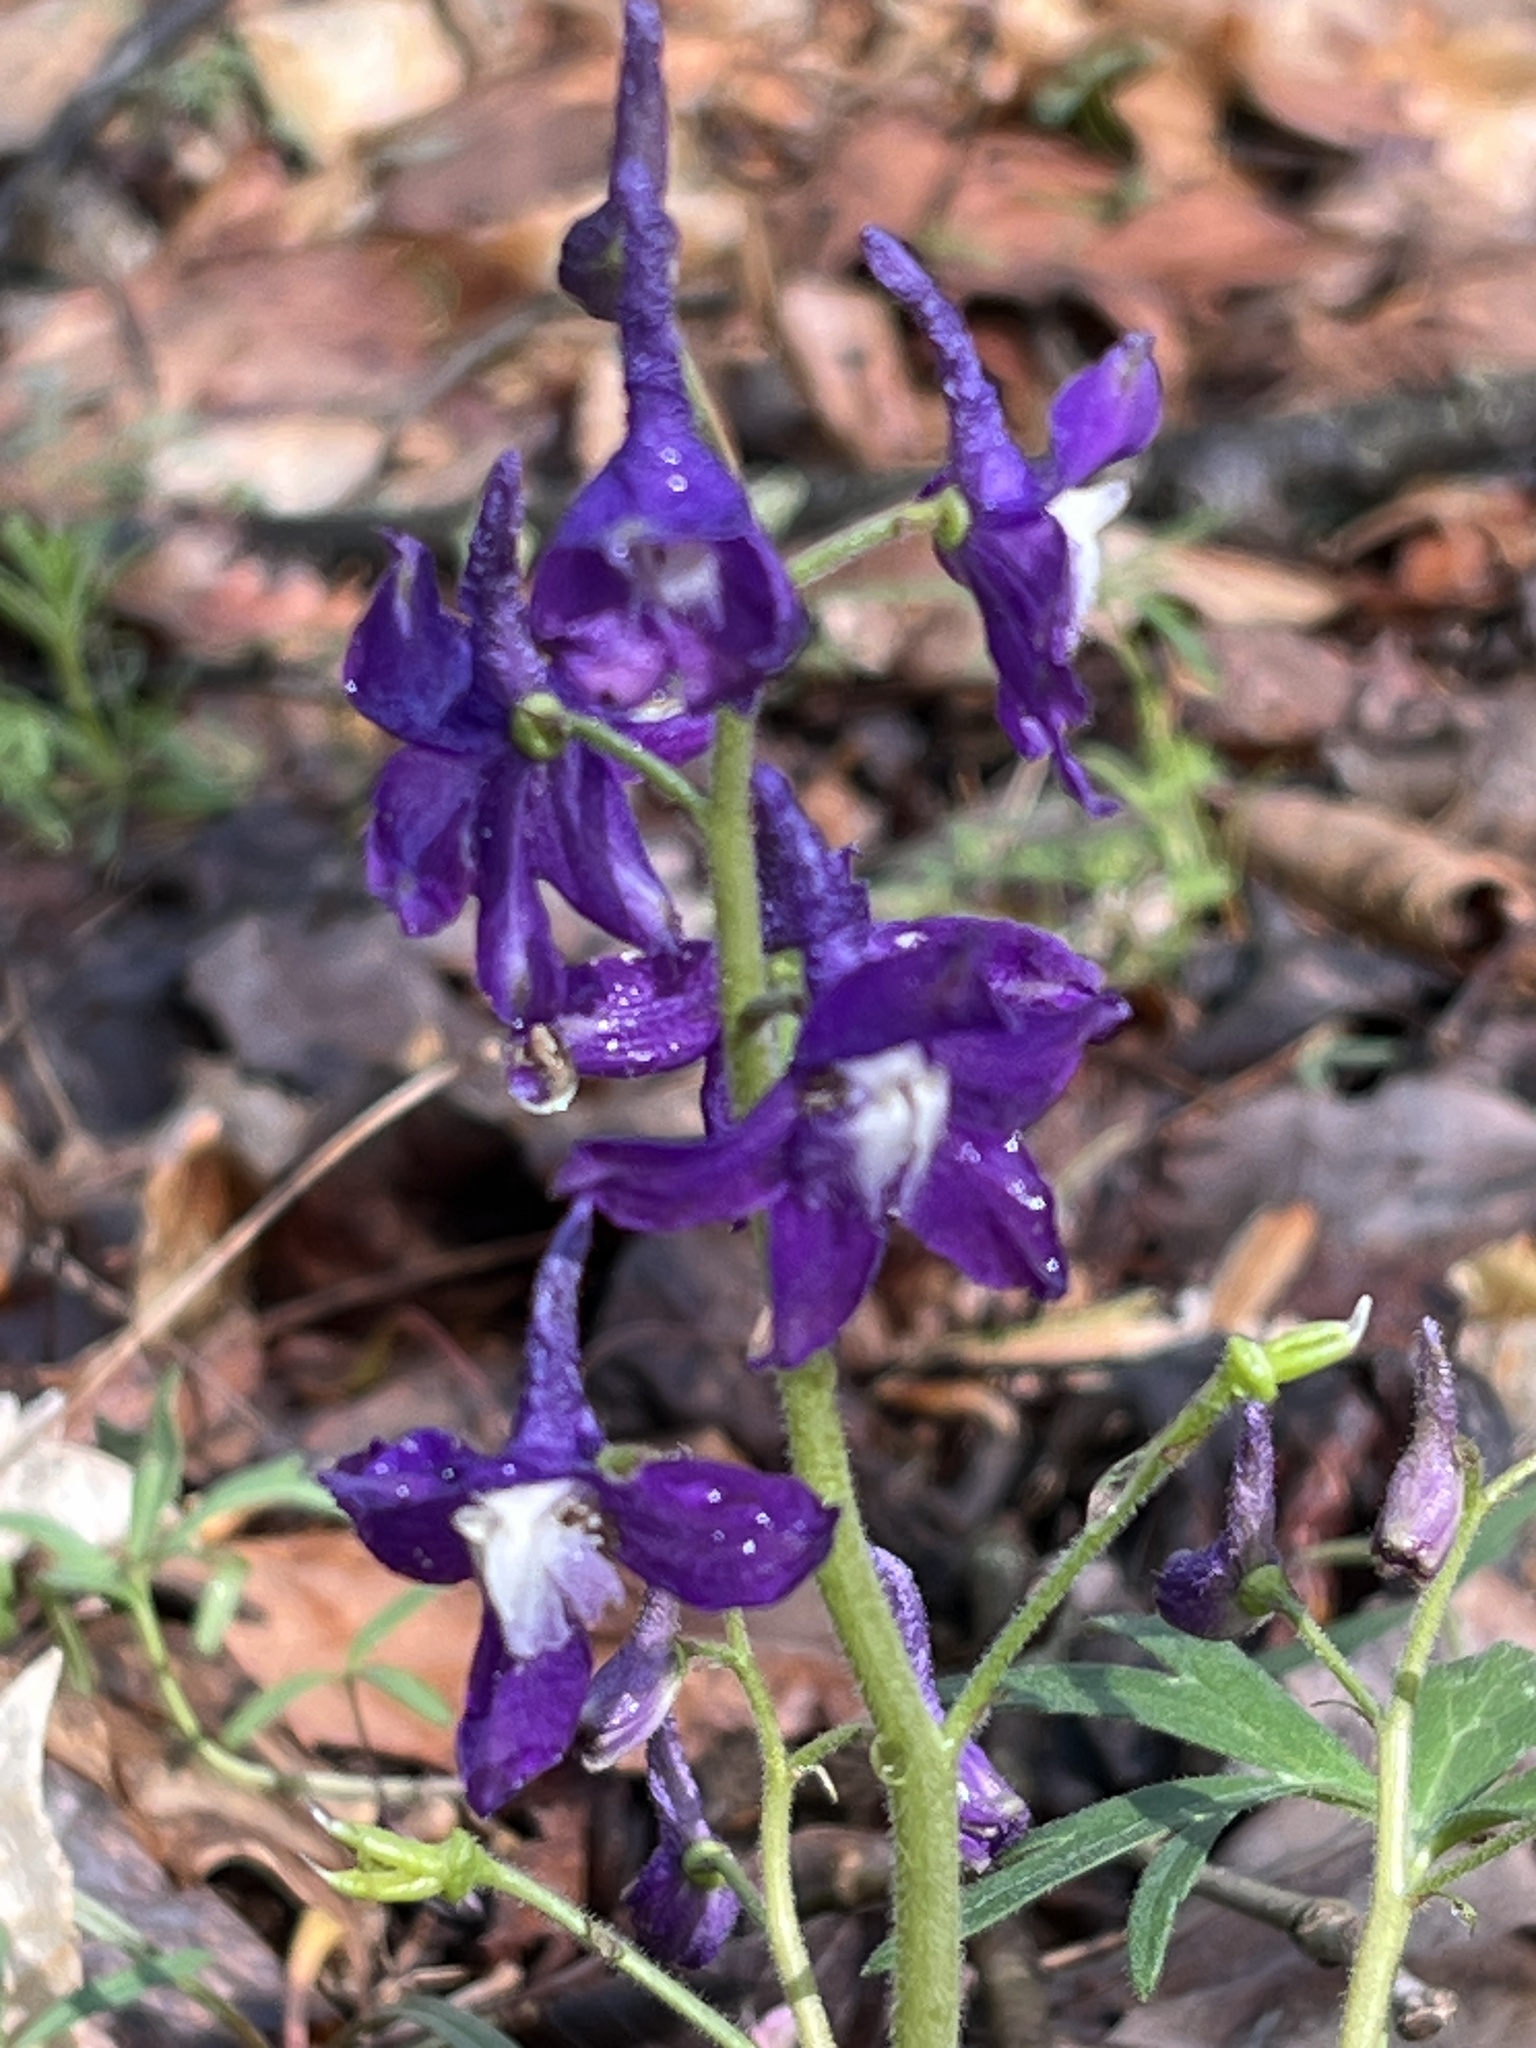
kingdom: Plantae
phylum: Tracheophyta
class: Magnoliopsida
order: Ranunculales
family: Ranunculaceae
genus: Delphinium
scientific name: Delphinium tricorne
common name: Dwarf larkspur
